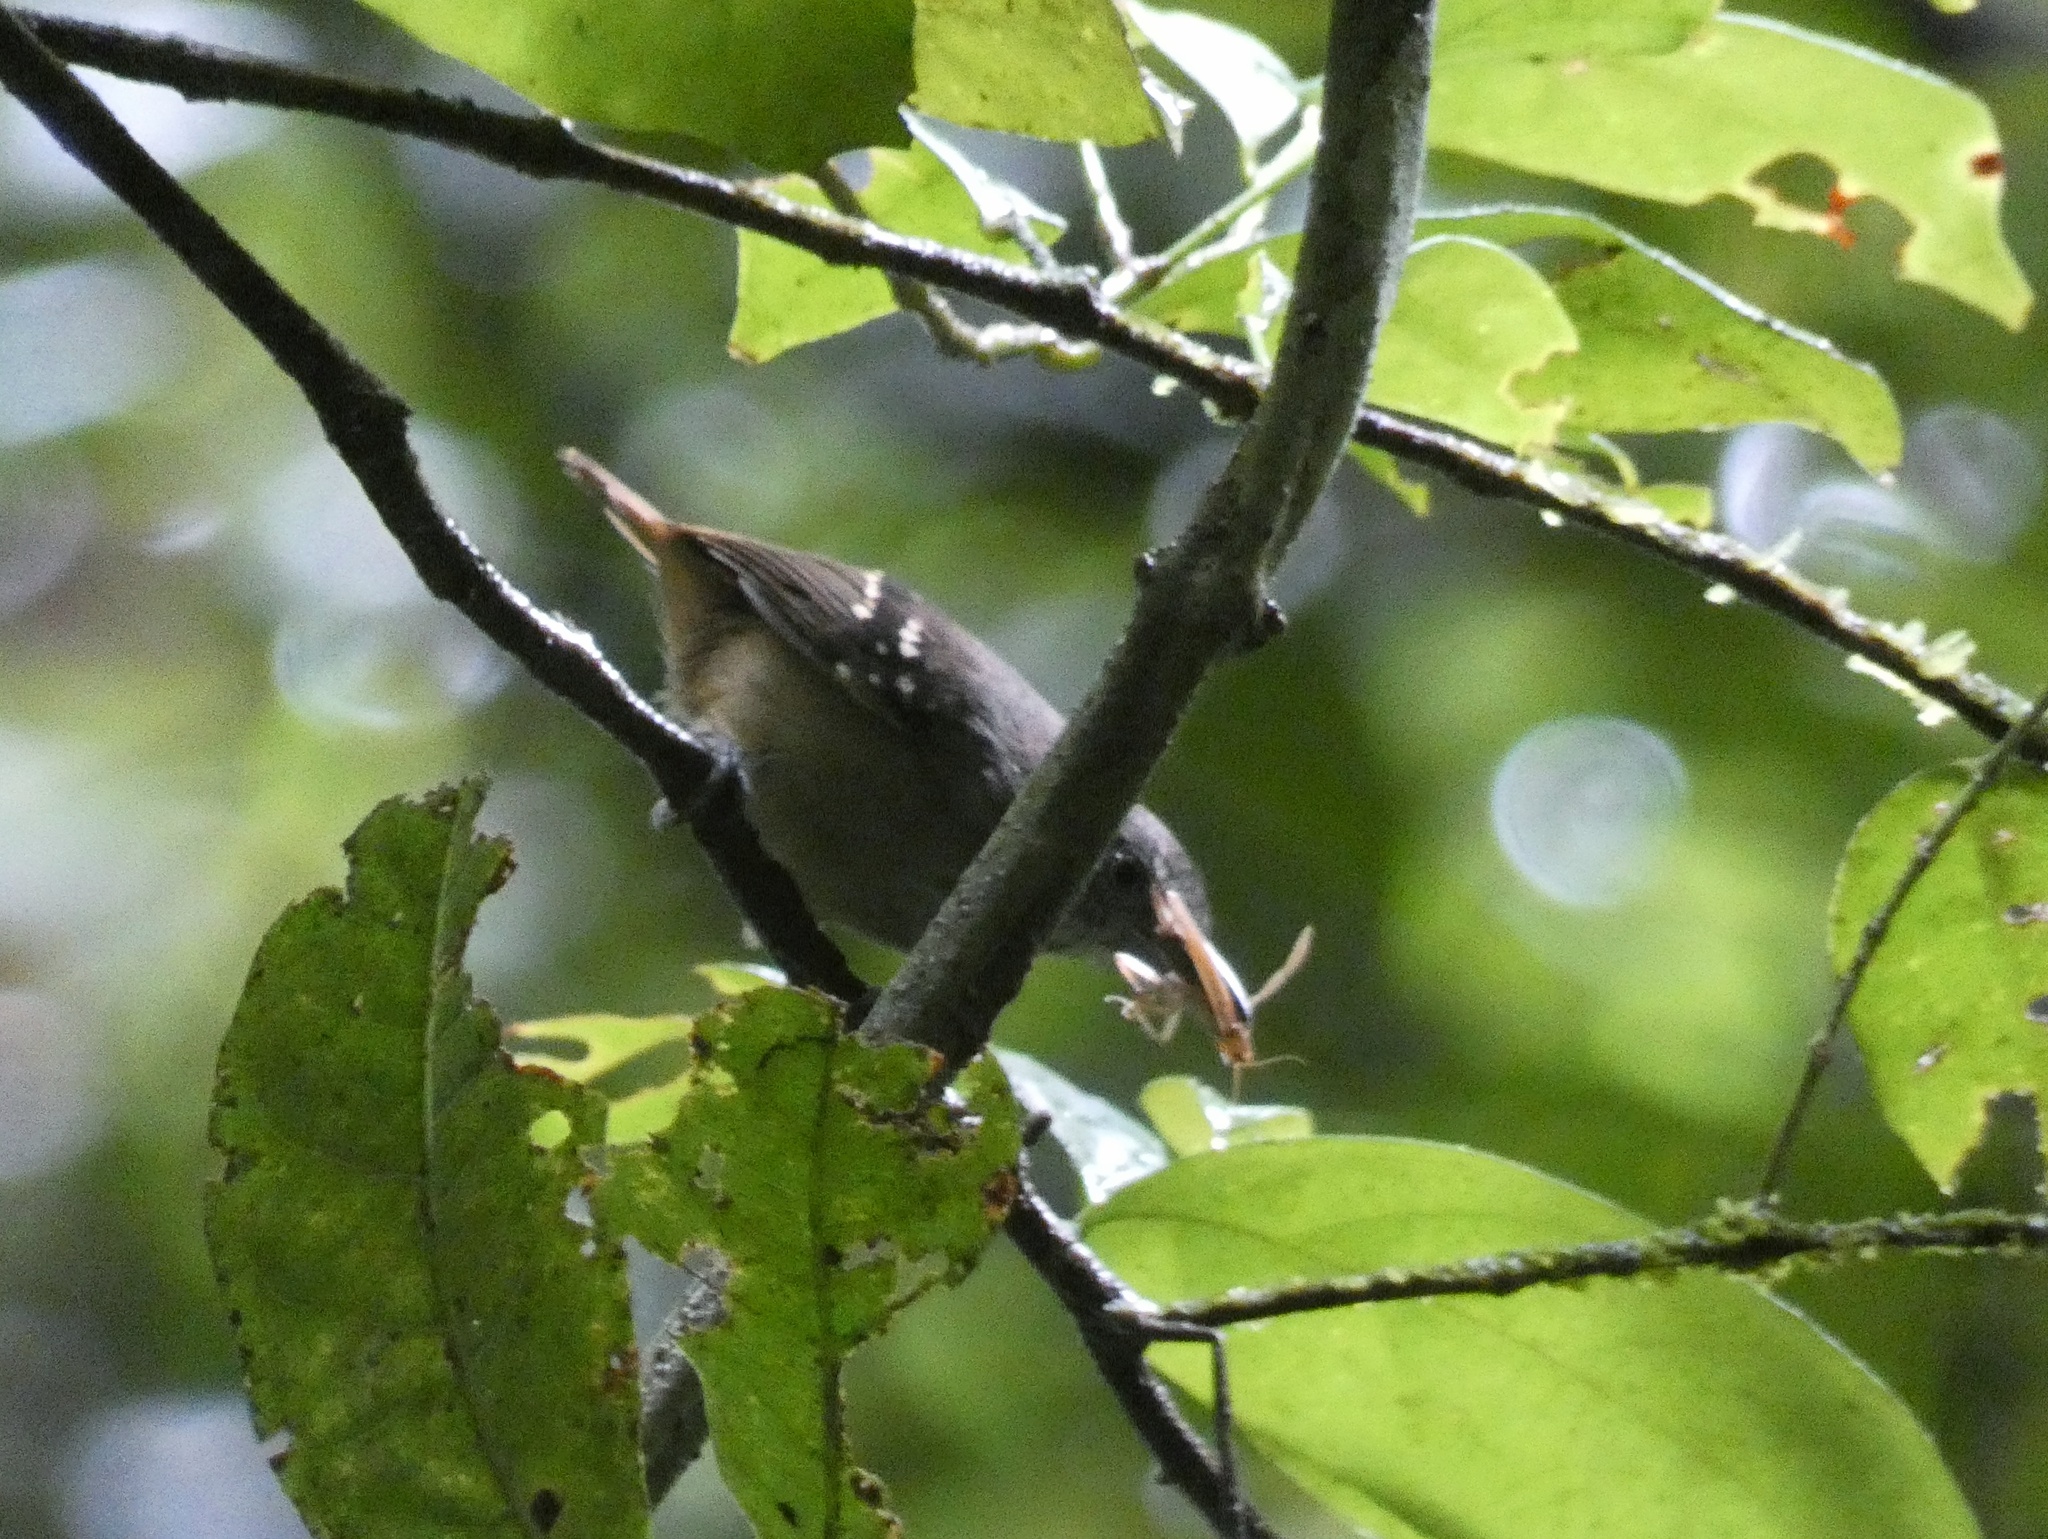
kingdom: Animalia
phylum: Chordata
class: Aves
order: Passeriformes
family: Thamnophilidae
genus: Epinecrophylla
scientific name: Epinecrophylla fulviventris
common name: Checker-throated antwren
